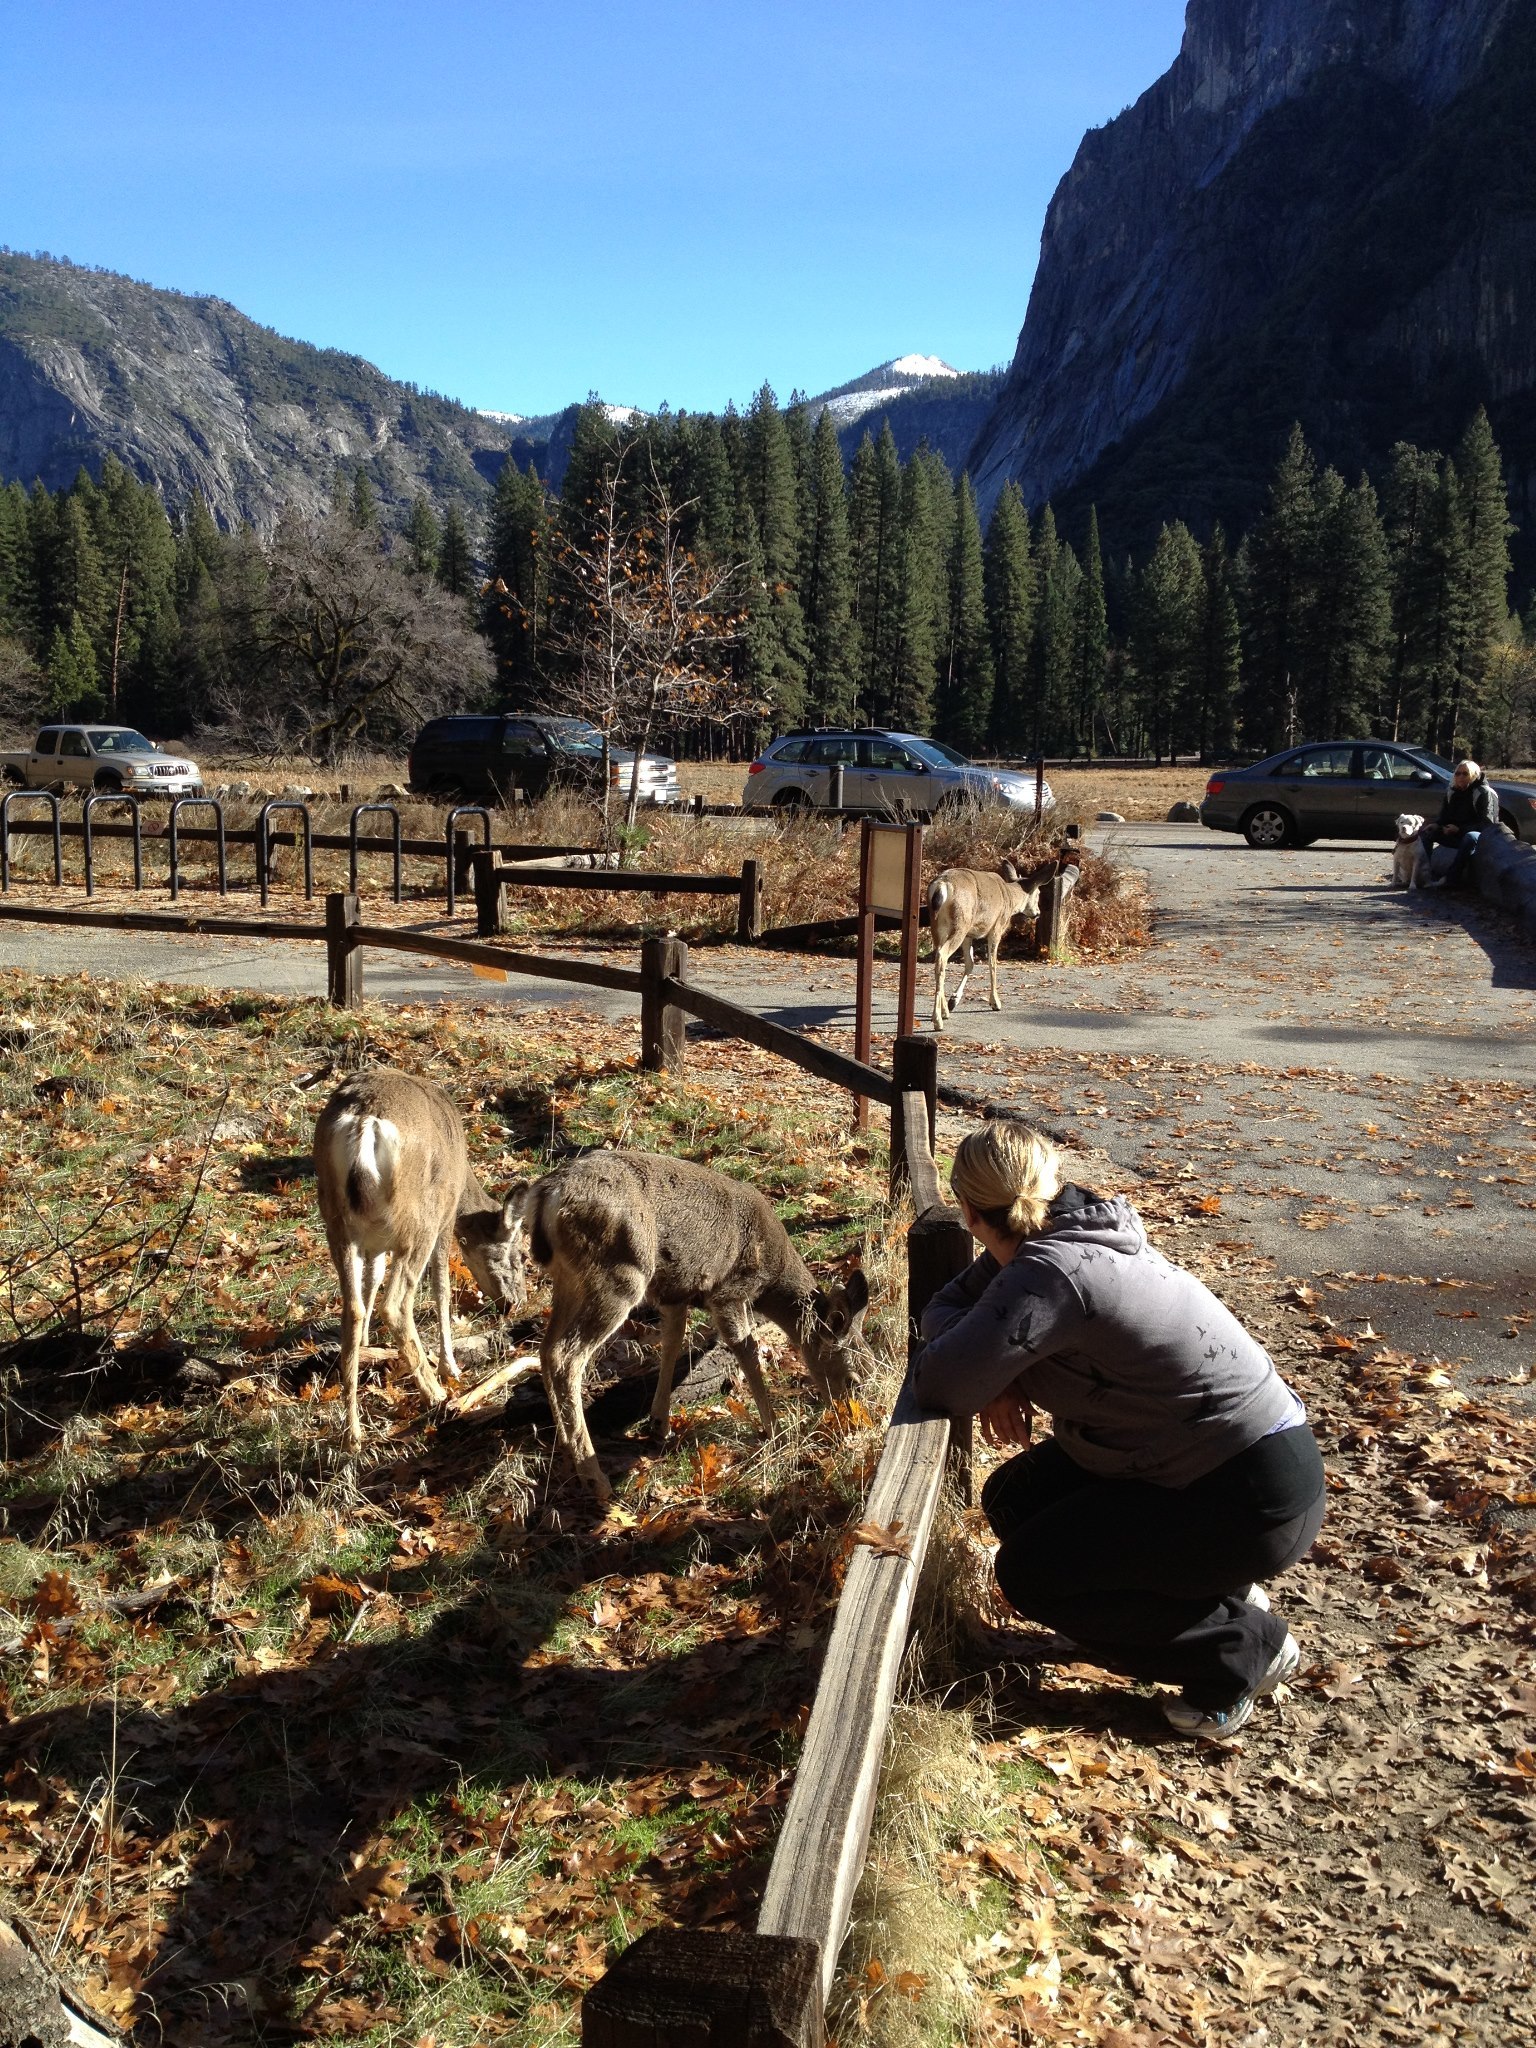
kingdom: Animalia
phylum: Chordata
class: Mammalia
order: Artiodactyla
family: Cervidae
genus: Odocoileus
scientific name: Odocoileus hemionus
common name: Mule deer
